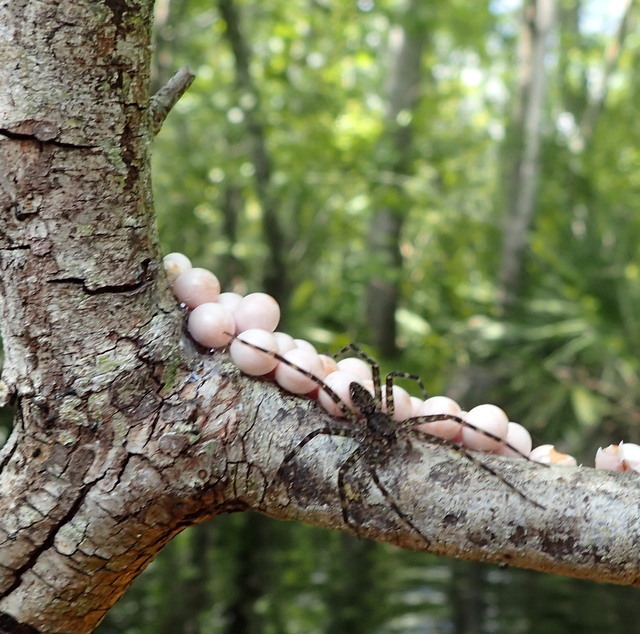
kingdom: Animalia
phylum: Mollusca
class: Gastropoda
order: Architaenioglossa
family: Ampullariidae
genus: Pomacea
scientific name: Pomacea paludosa
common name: Florida applesnail
